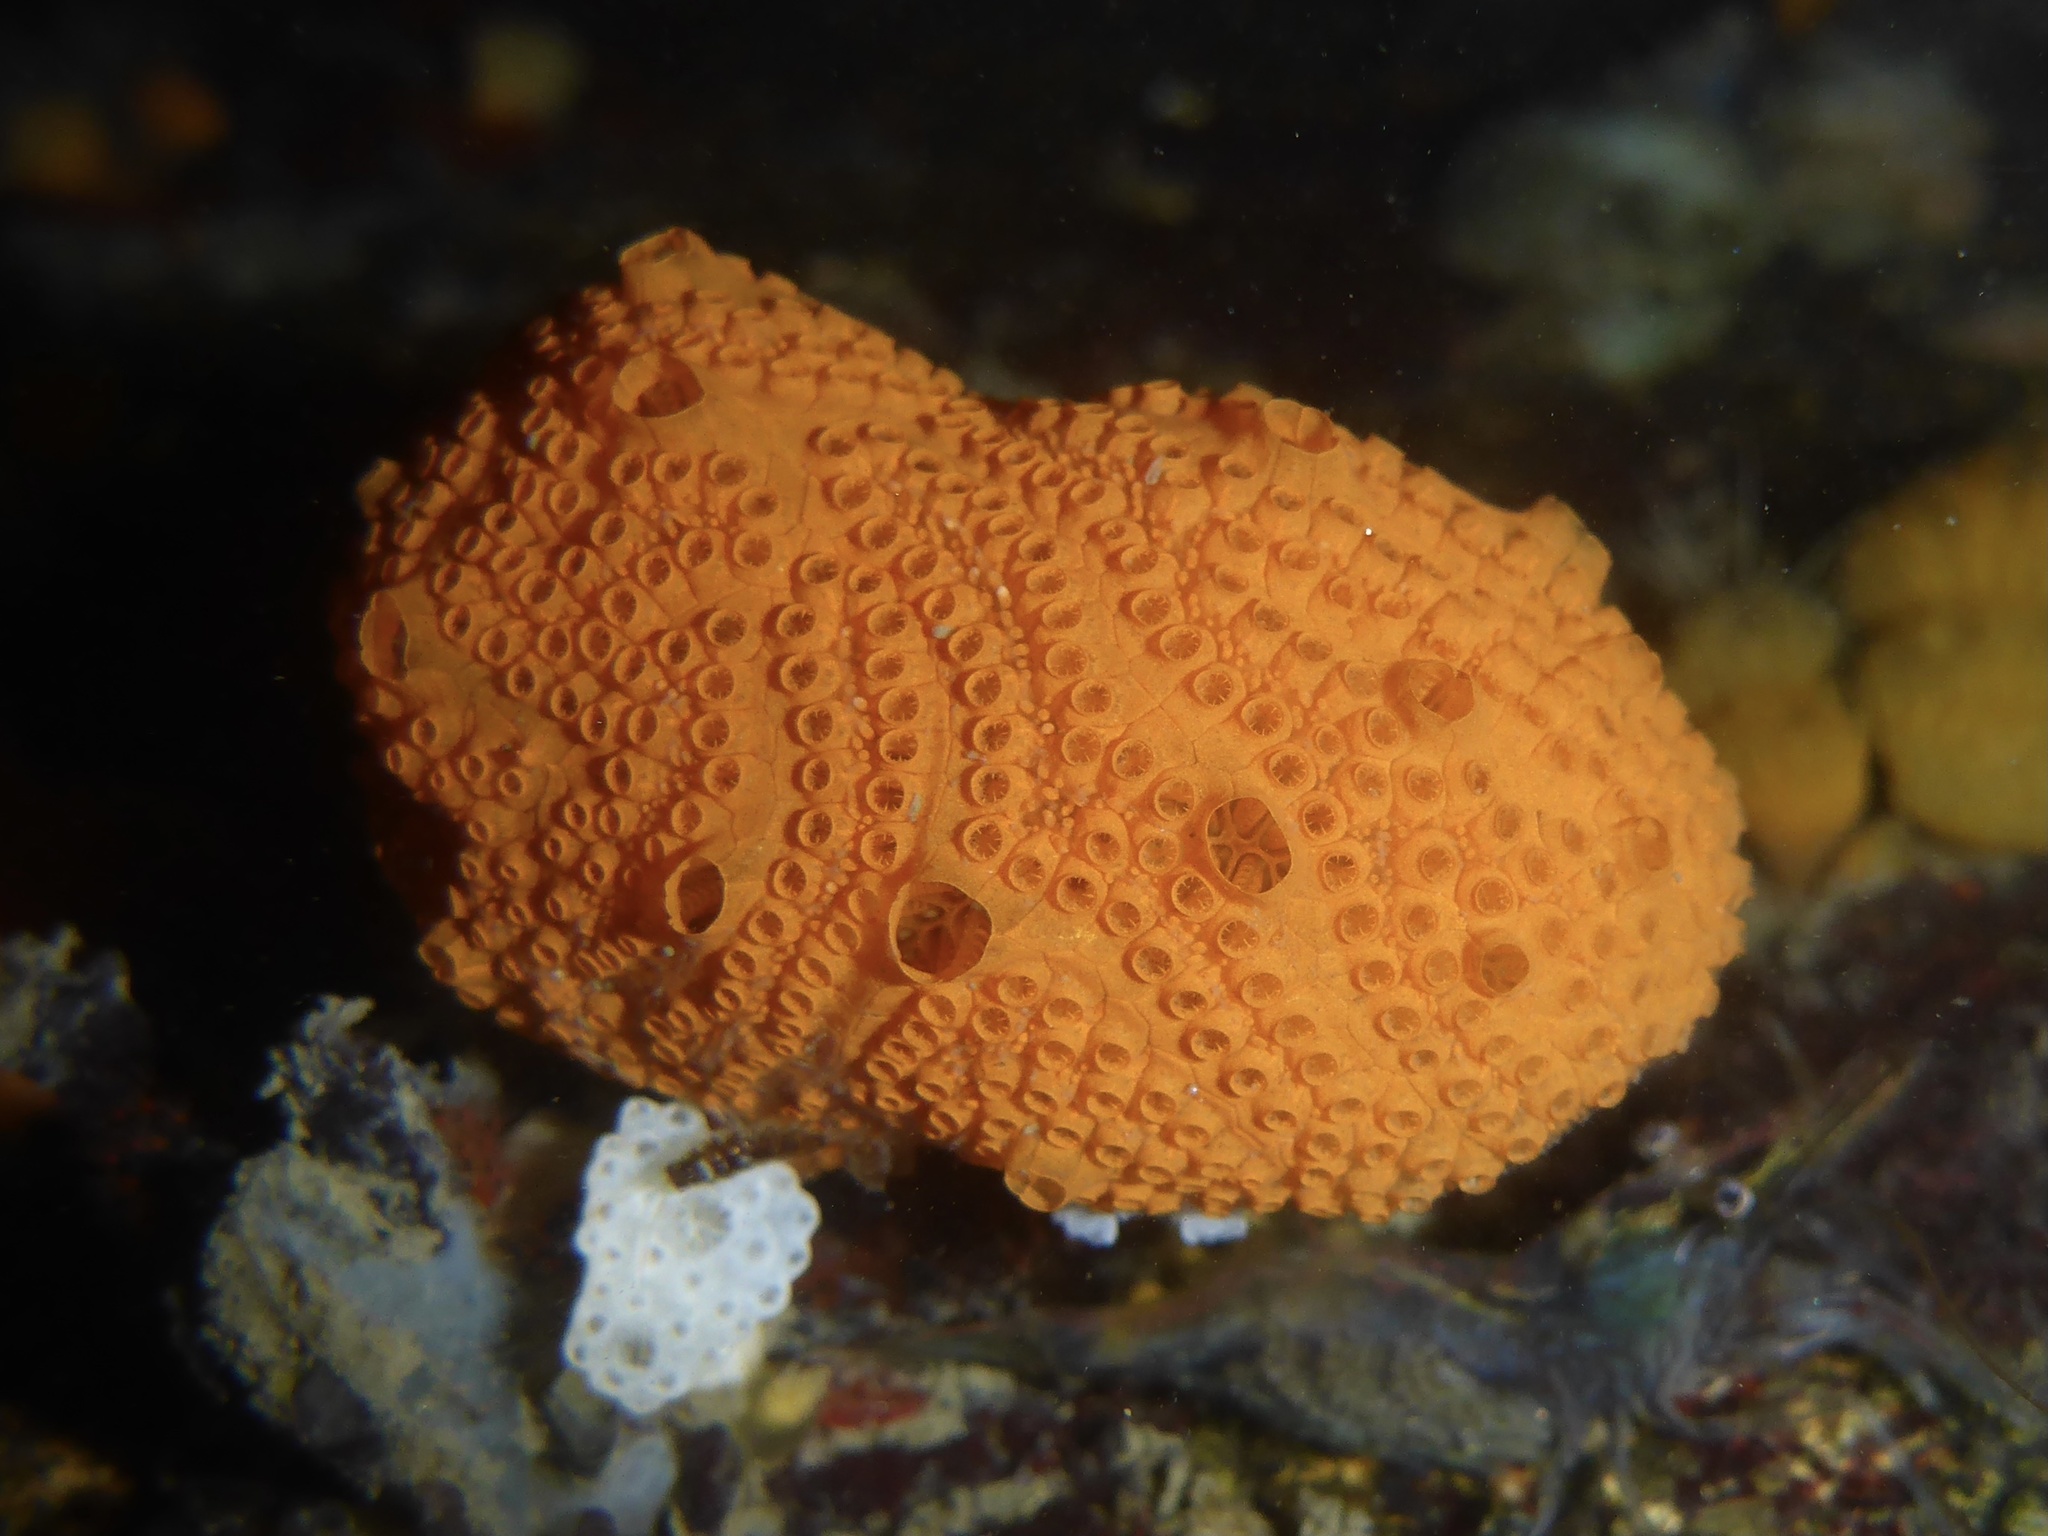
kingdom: Animalia
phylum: Chordata
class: Ascidiacea
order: Stolidobranchia
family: Styelidae
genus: Botrylloides
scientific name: Botrylloides violaceus
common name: Colonial sea squirt
